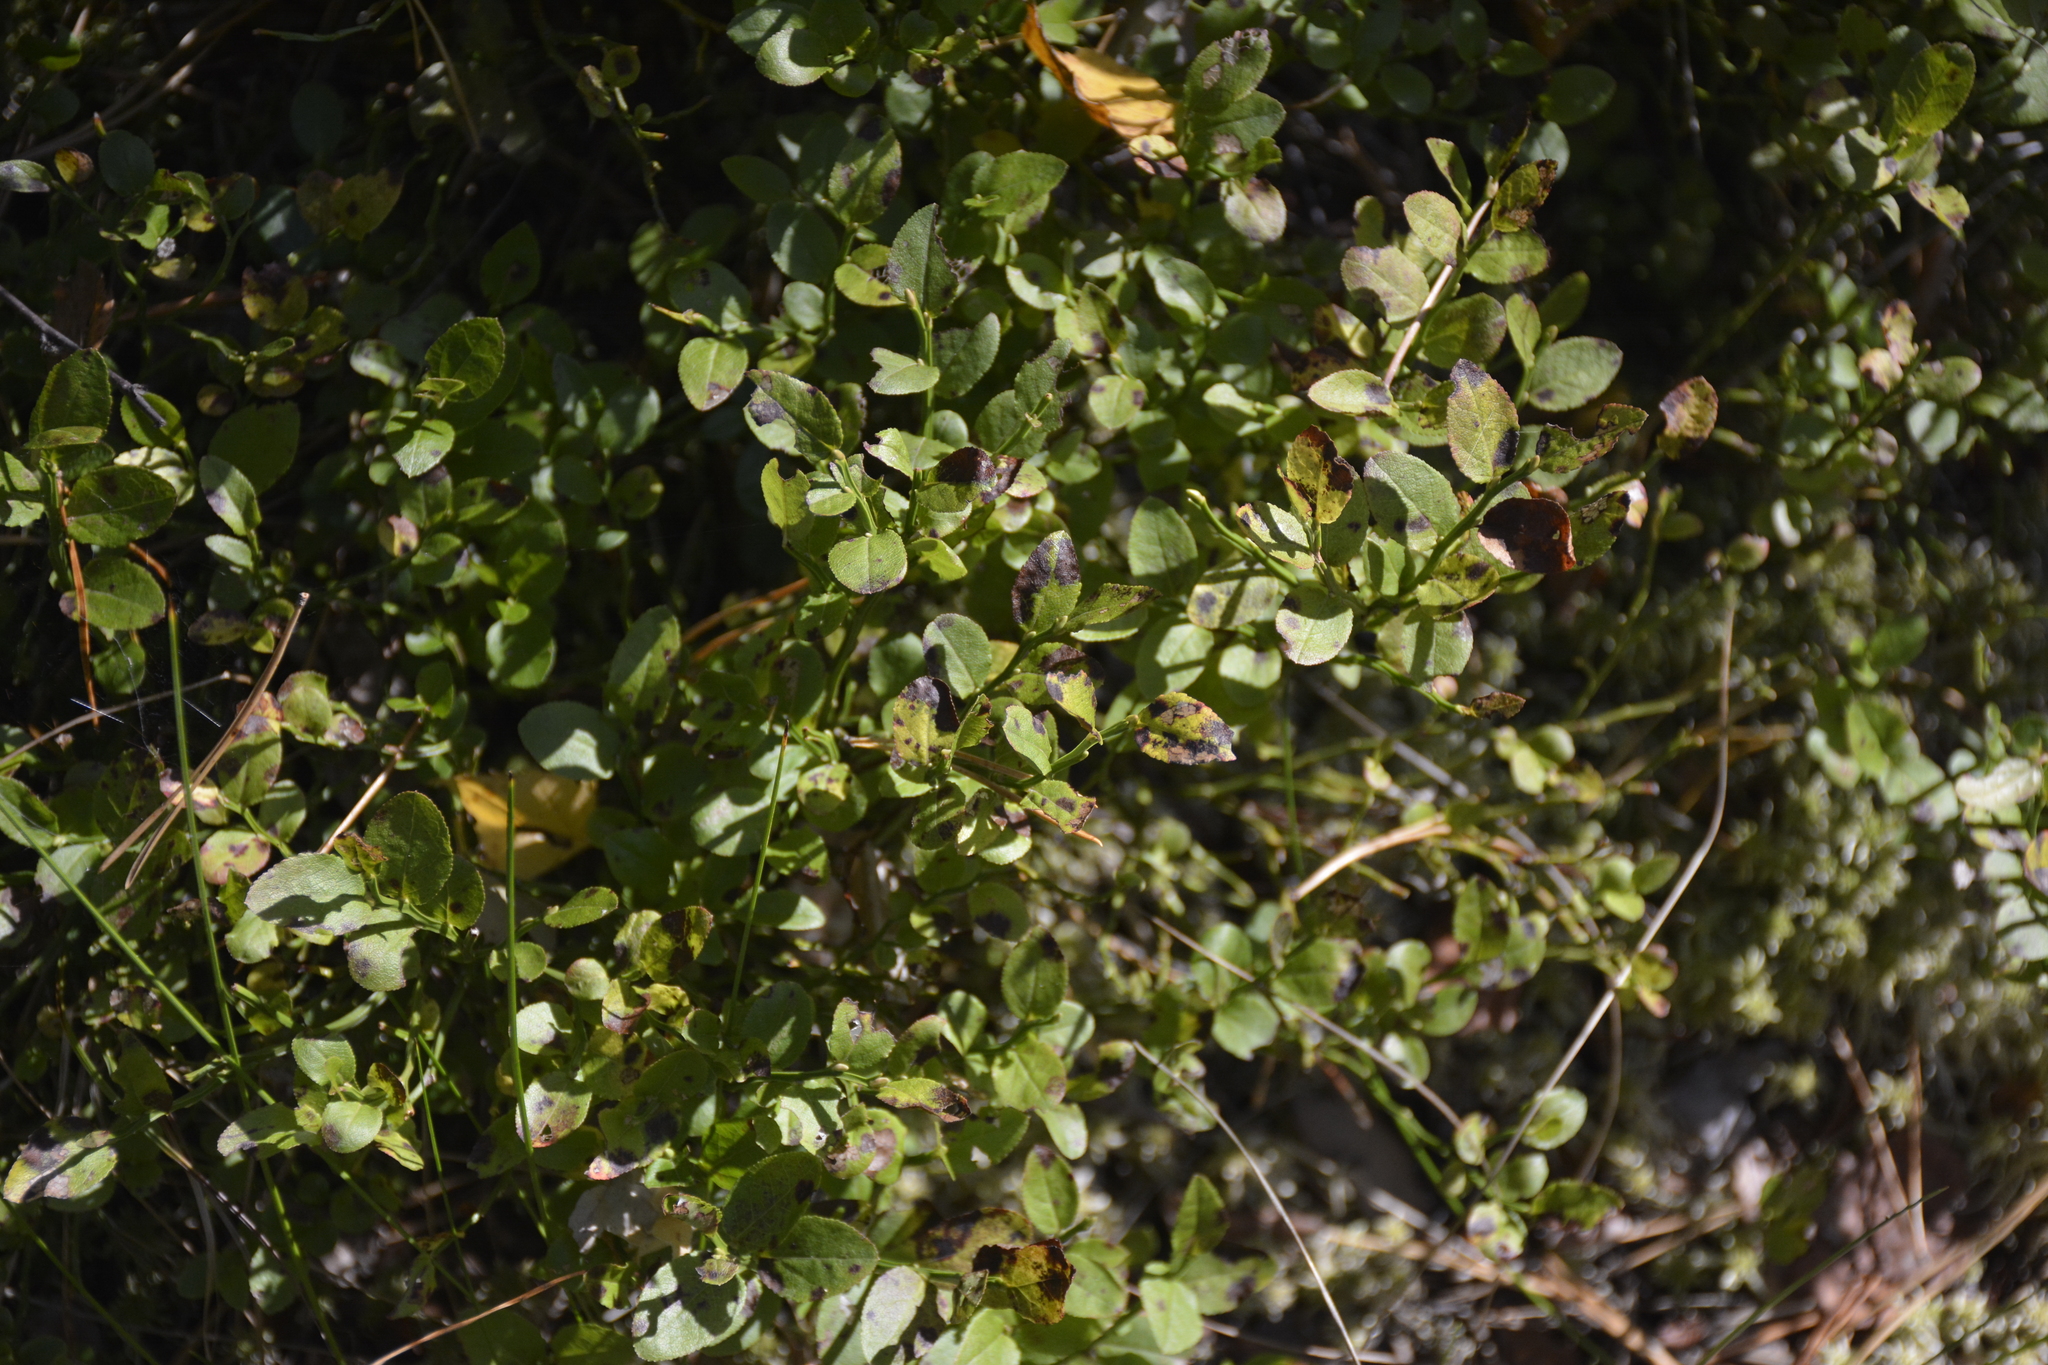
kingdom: Plantae
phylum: Tracheophyta
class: Magnoliopsida
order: Ericales
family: Ericaceae
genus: Vaccinium
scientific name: Vaccinium myrtillus
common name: Bilberry
